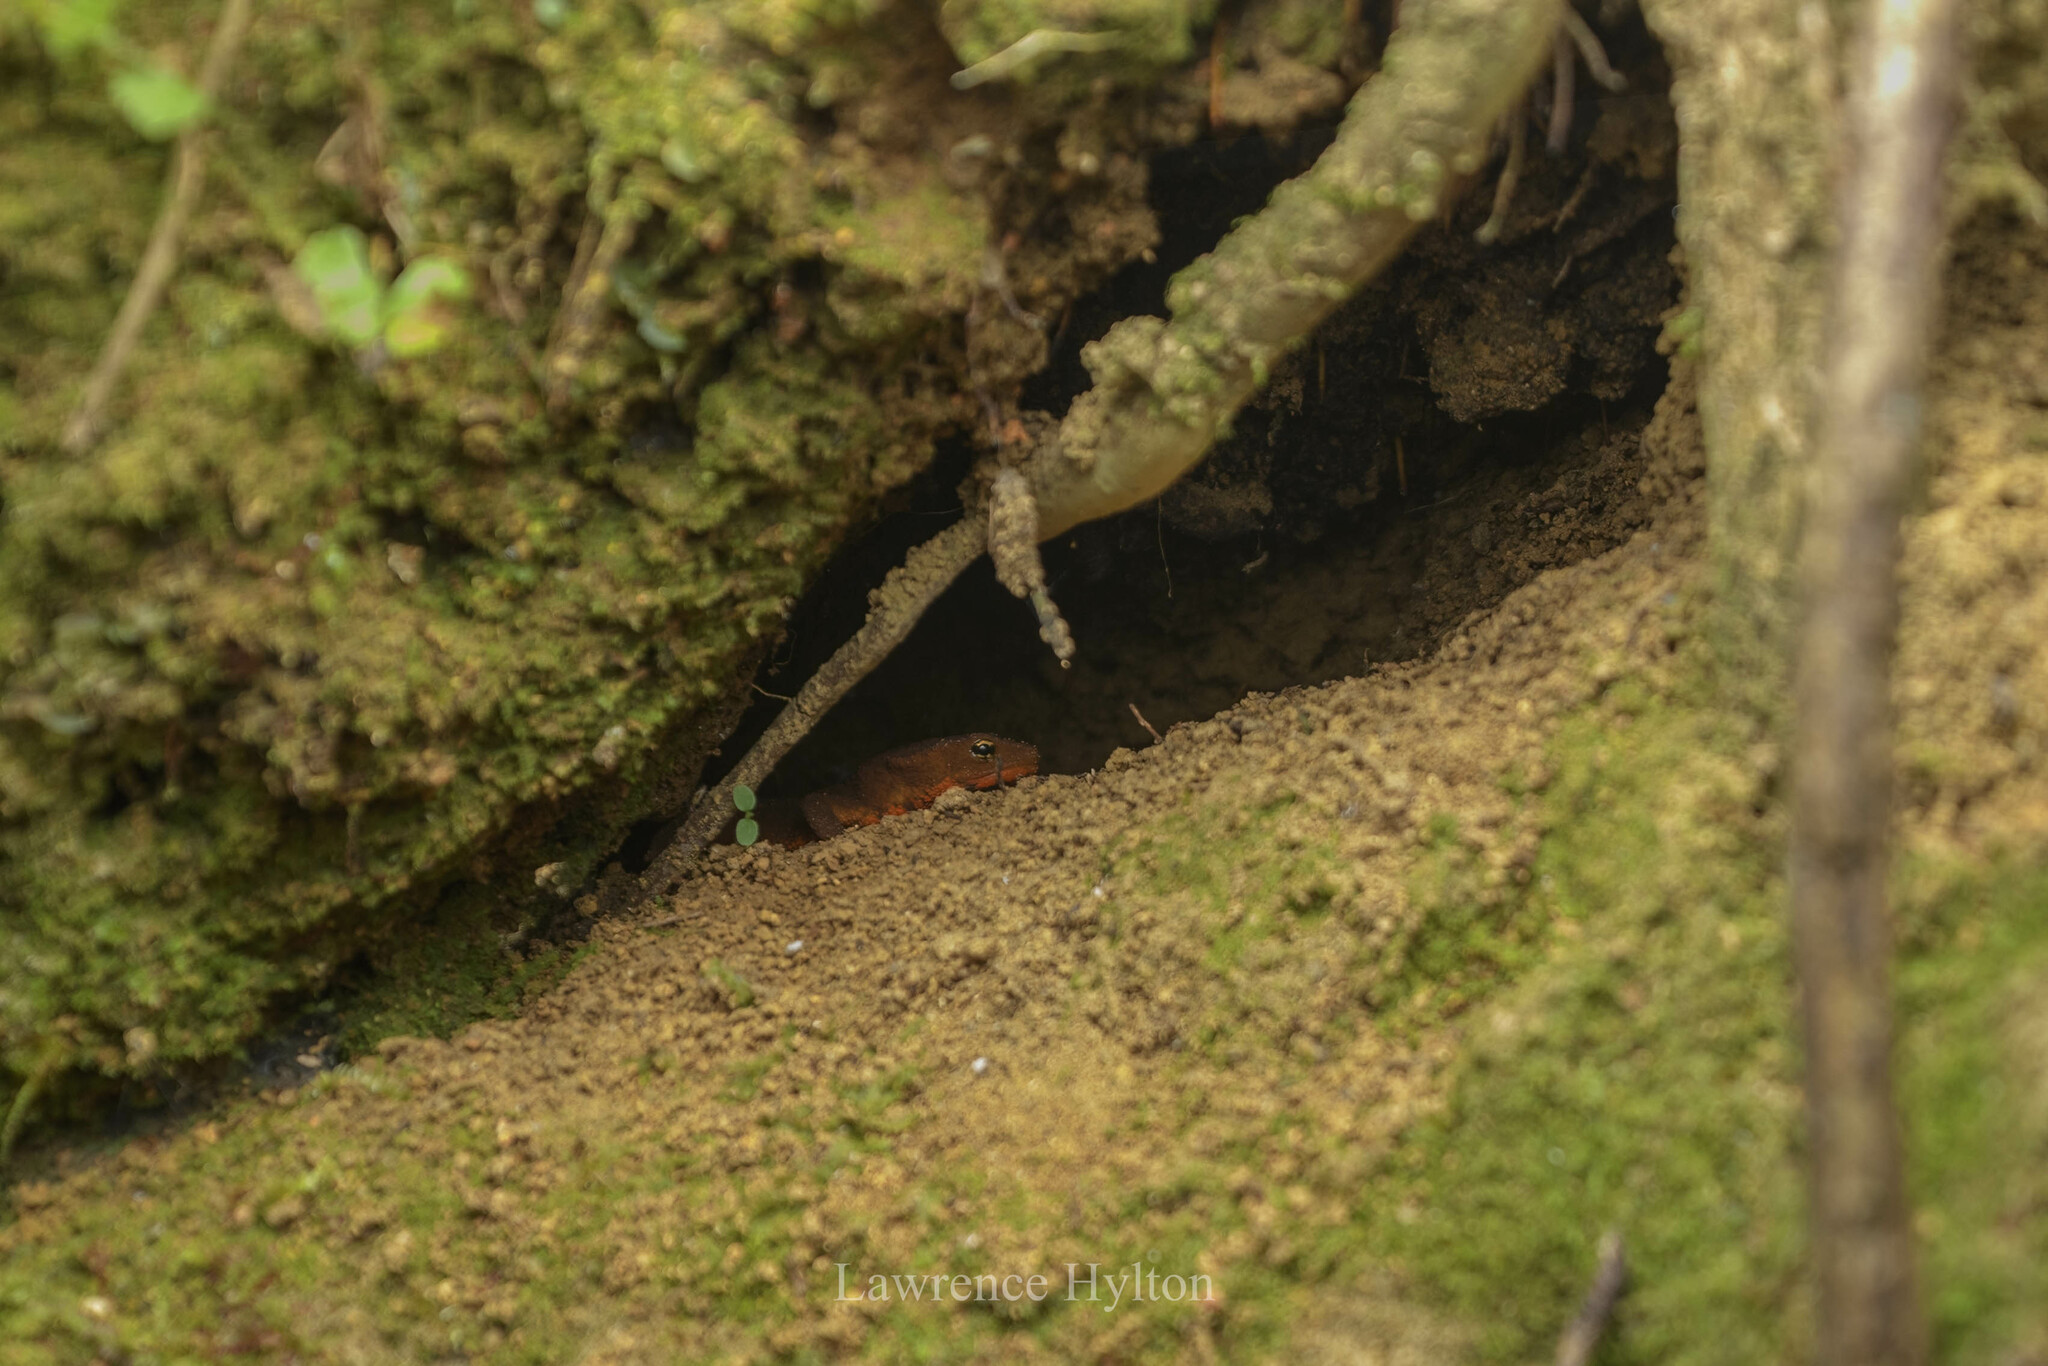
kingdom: Animalia
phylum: Chordata
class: Amphibia
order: Caudata
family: Salamandridae
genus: Paramesotriton
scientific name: Paramesotriton hongkongensis
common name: Hong kong warty newt
